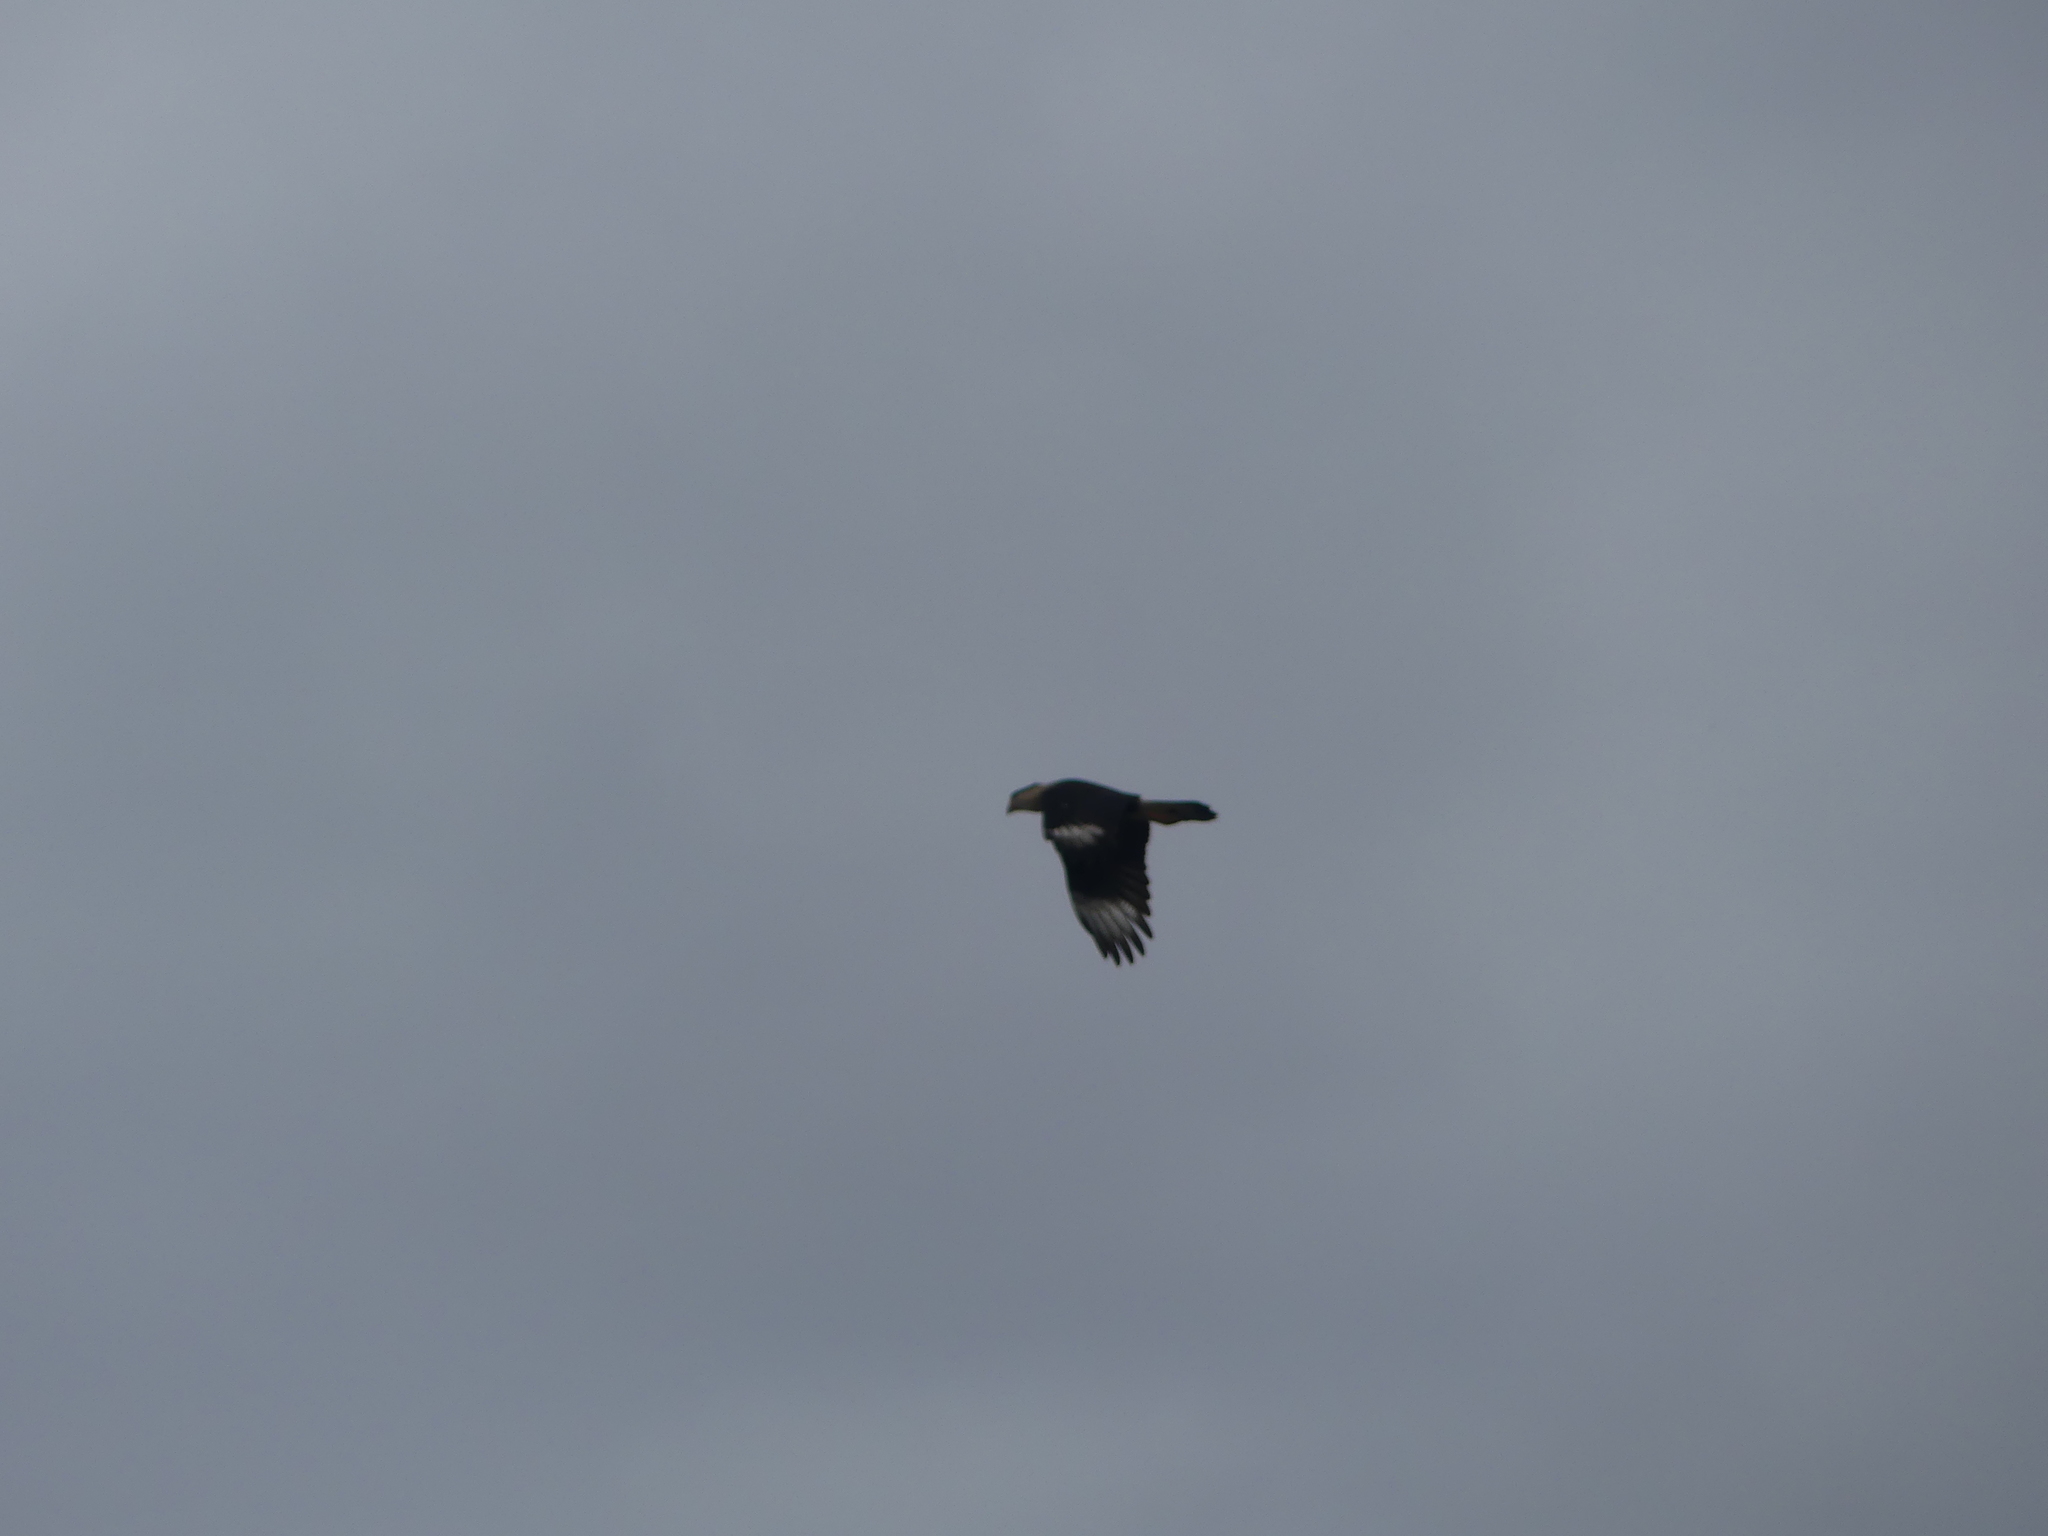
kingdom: Animalia
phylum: Chordata
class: Aves
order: Falconiformes
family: Falconidae
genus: Caracara
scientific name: Caracara plancus
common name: Southern caracara
